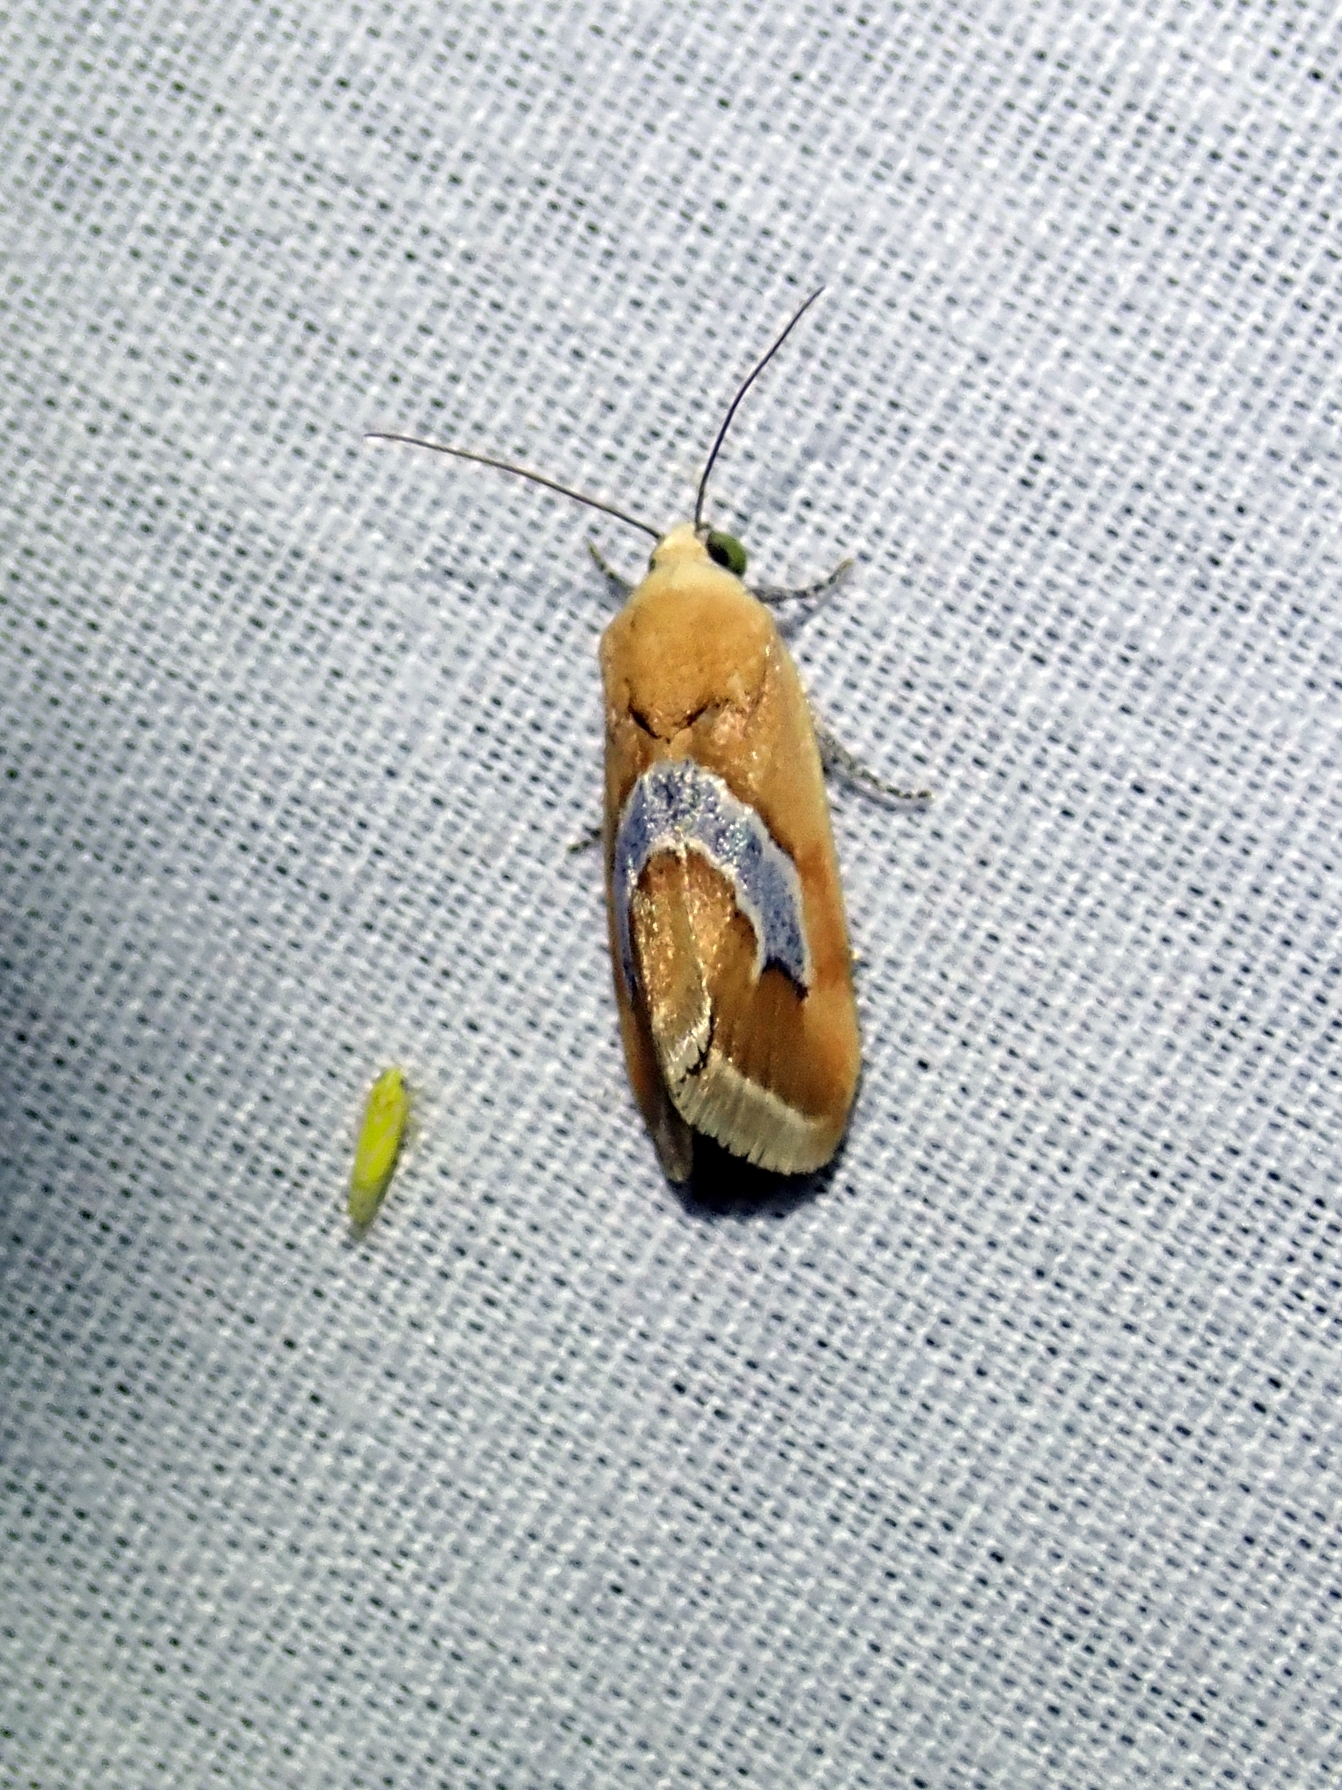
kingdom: Animalia
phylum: Arthropoda
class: Insecta
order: Lepidoptera
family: Noctuidae
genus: Ponometia
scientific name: Ponometia venustula
